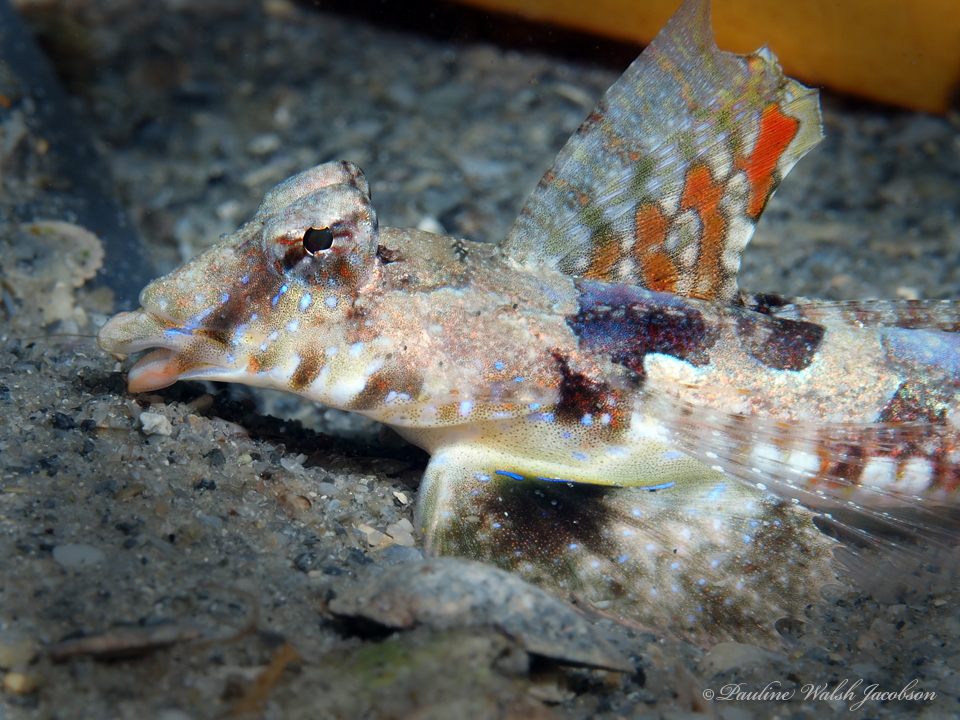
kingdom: Animalia
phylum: Chordata
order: Perciformes
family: Callionymidae
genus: Callionymus
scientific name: Callionymus bairdi
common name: Lancer dragonet
